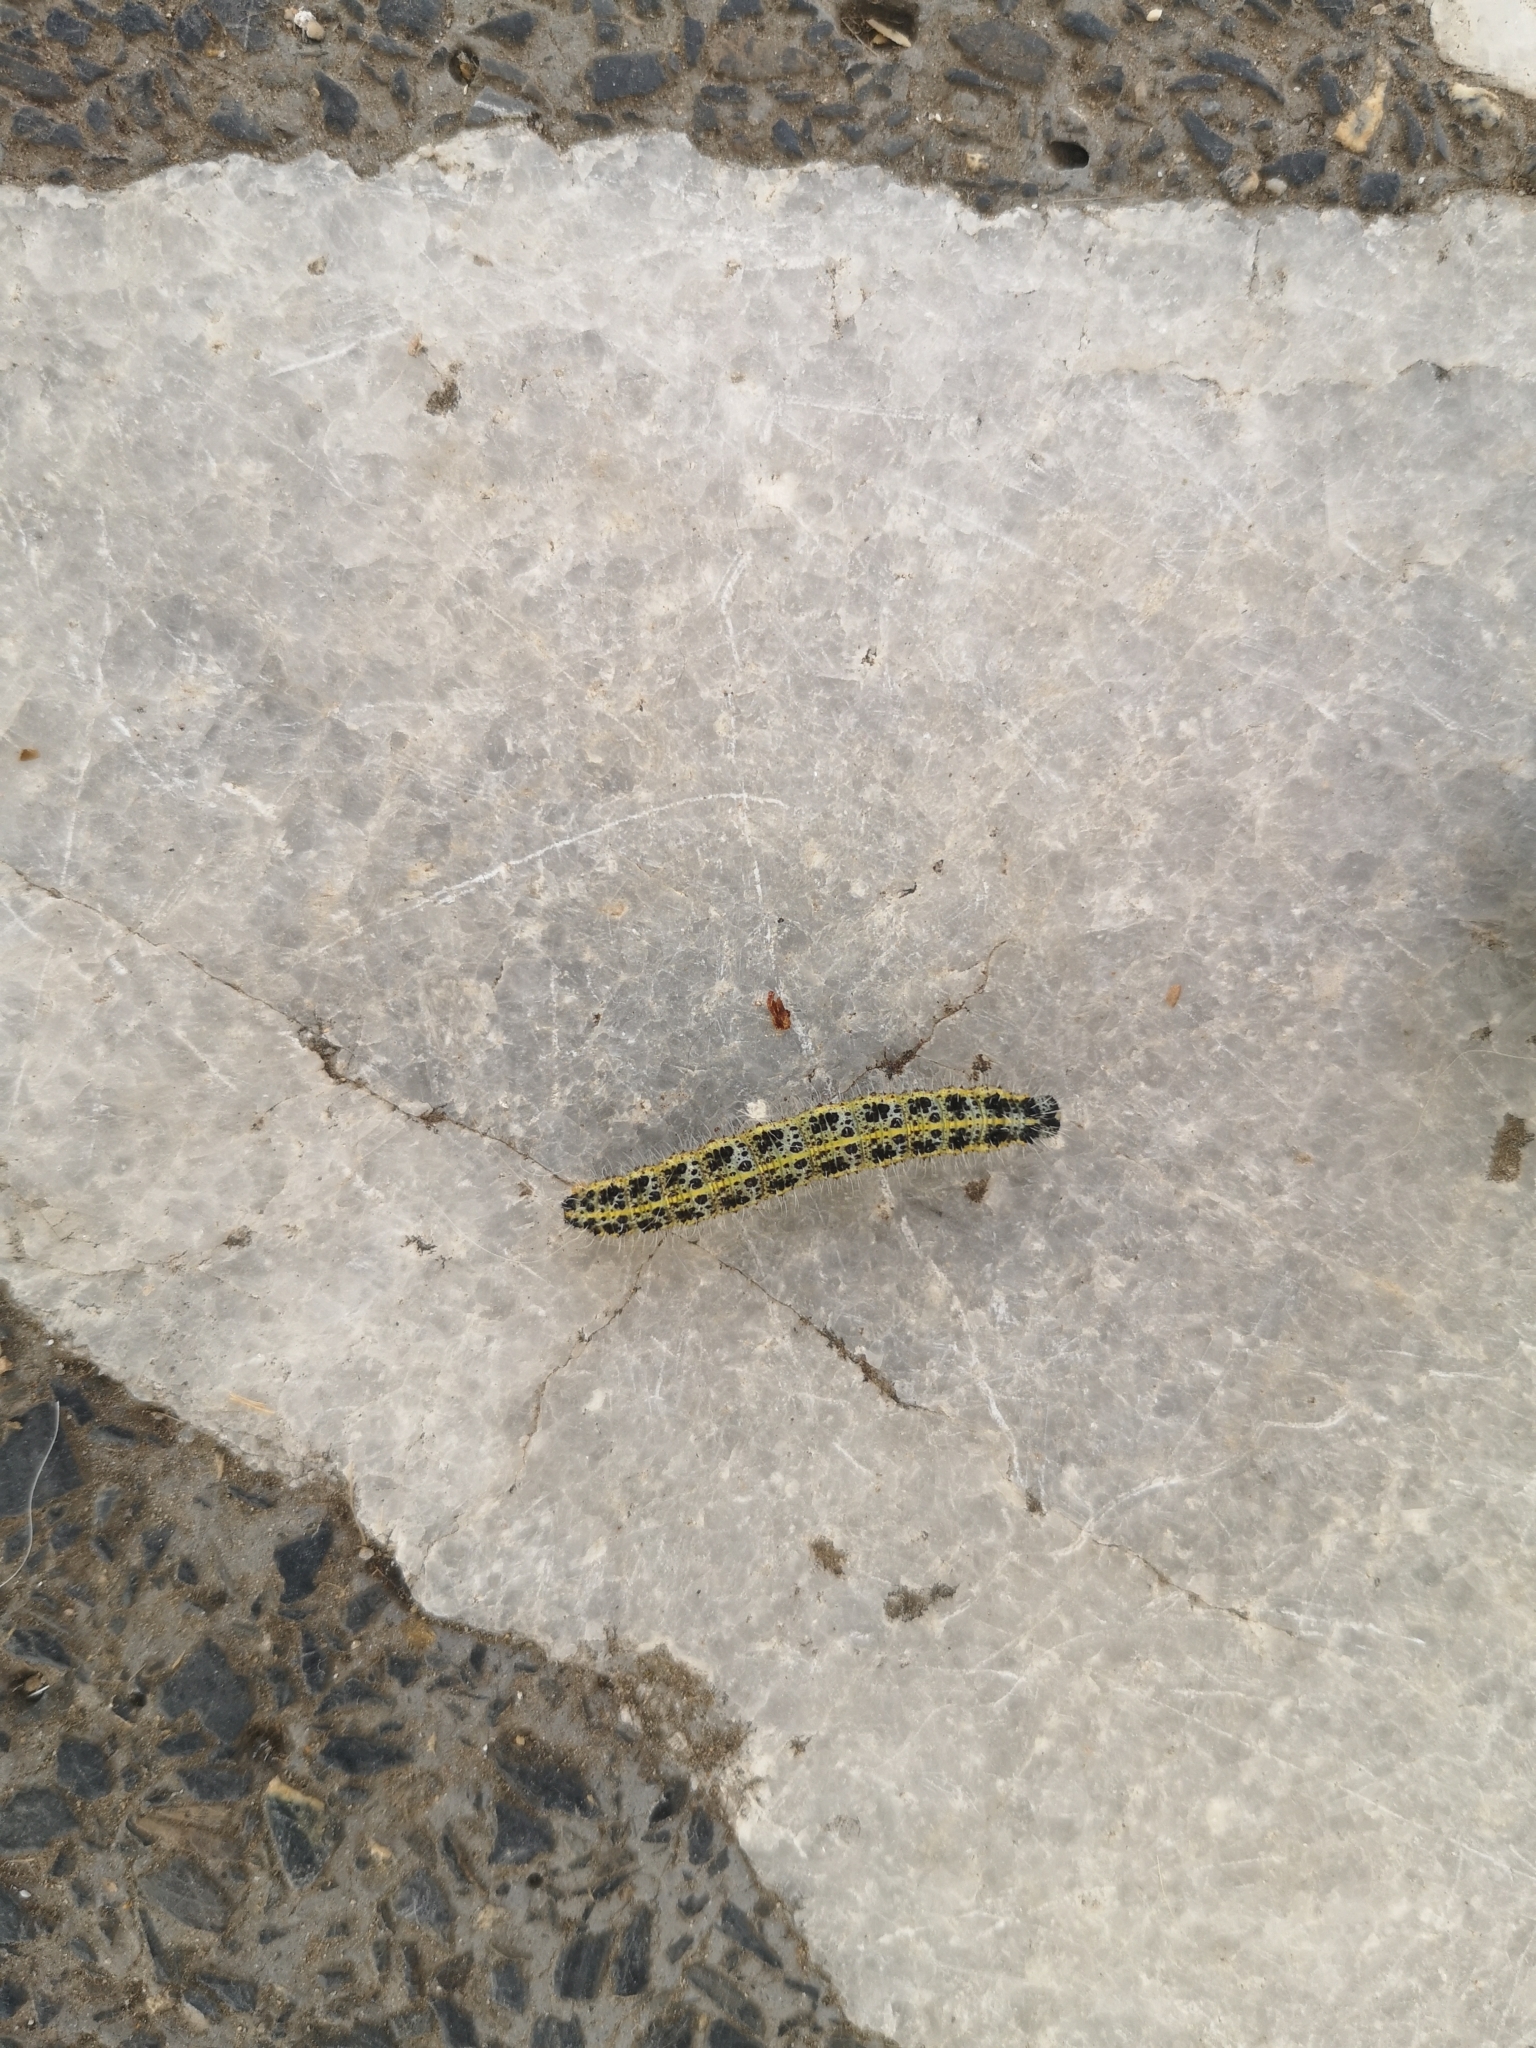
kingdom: Animalia
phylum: Arthropoda
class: Insecta
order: Lepidoptera
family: Pieridae
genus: Pieris
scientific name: Pieris brassicae
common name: Large white
